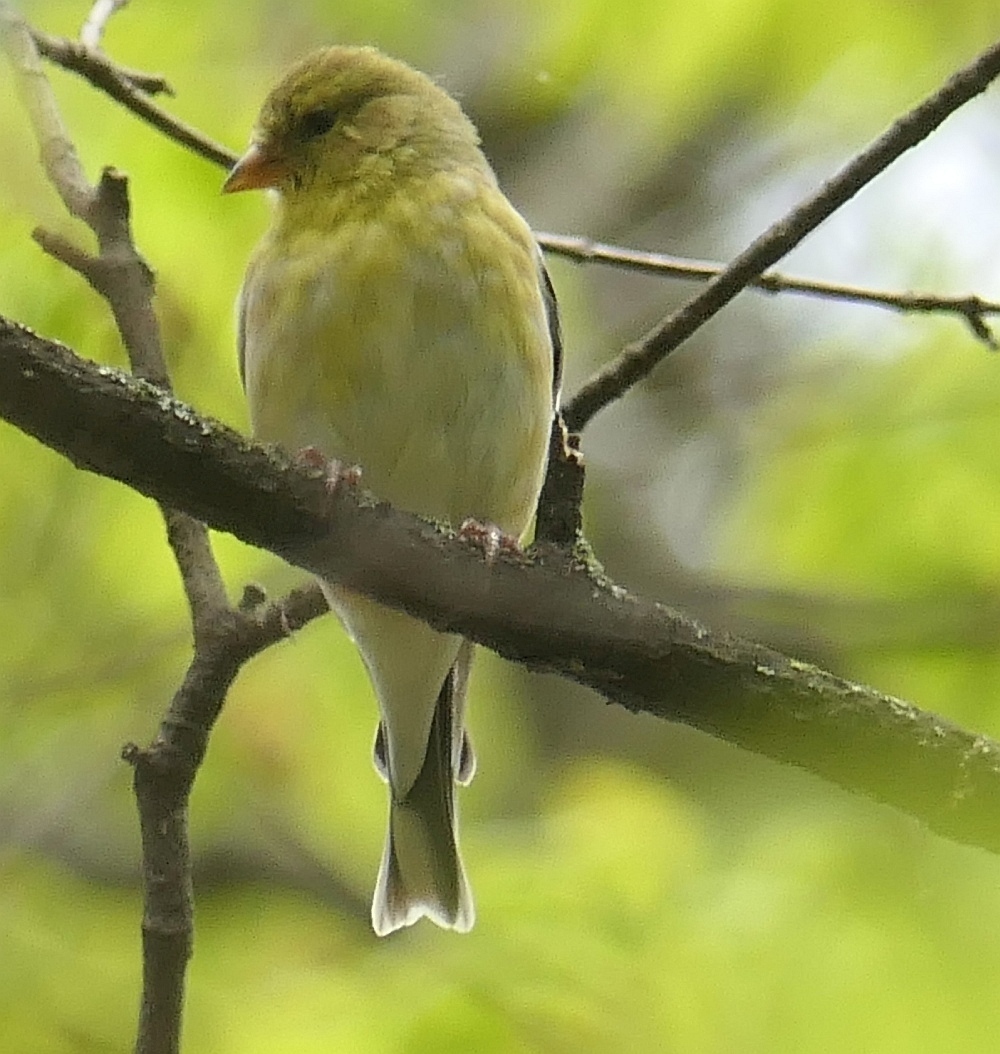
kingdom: Animalia
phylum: Chordata
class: Aves
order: Passeriformes
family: Fringillidae
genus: Spinus
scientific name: Spinus tristis
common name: American goldfinch
